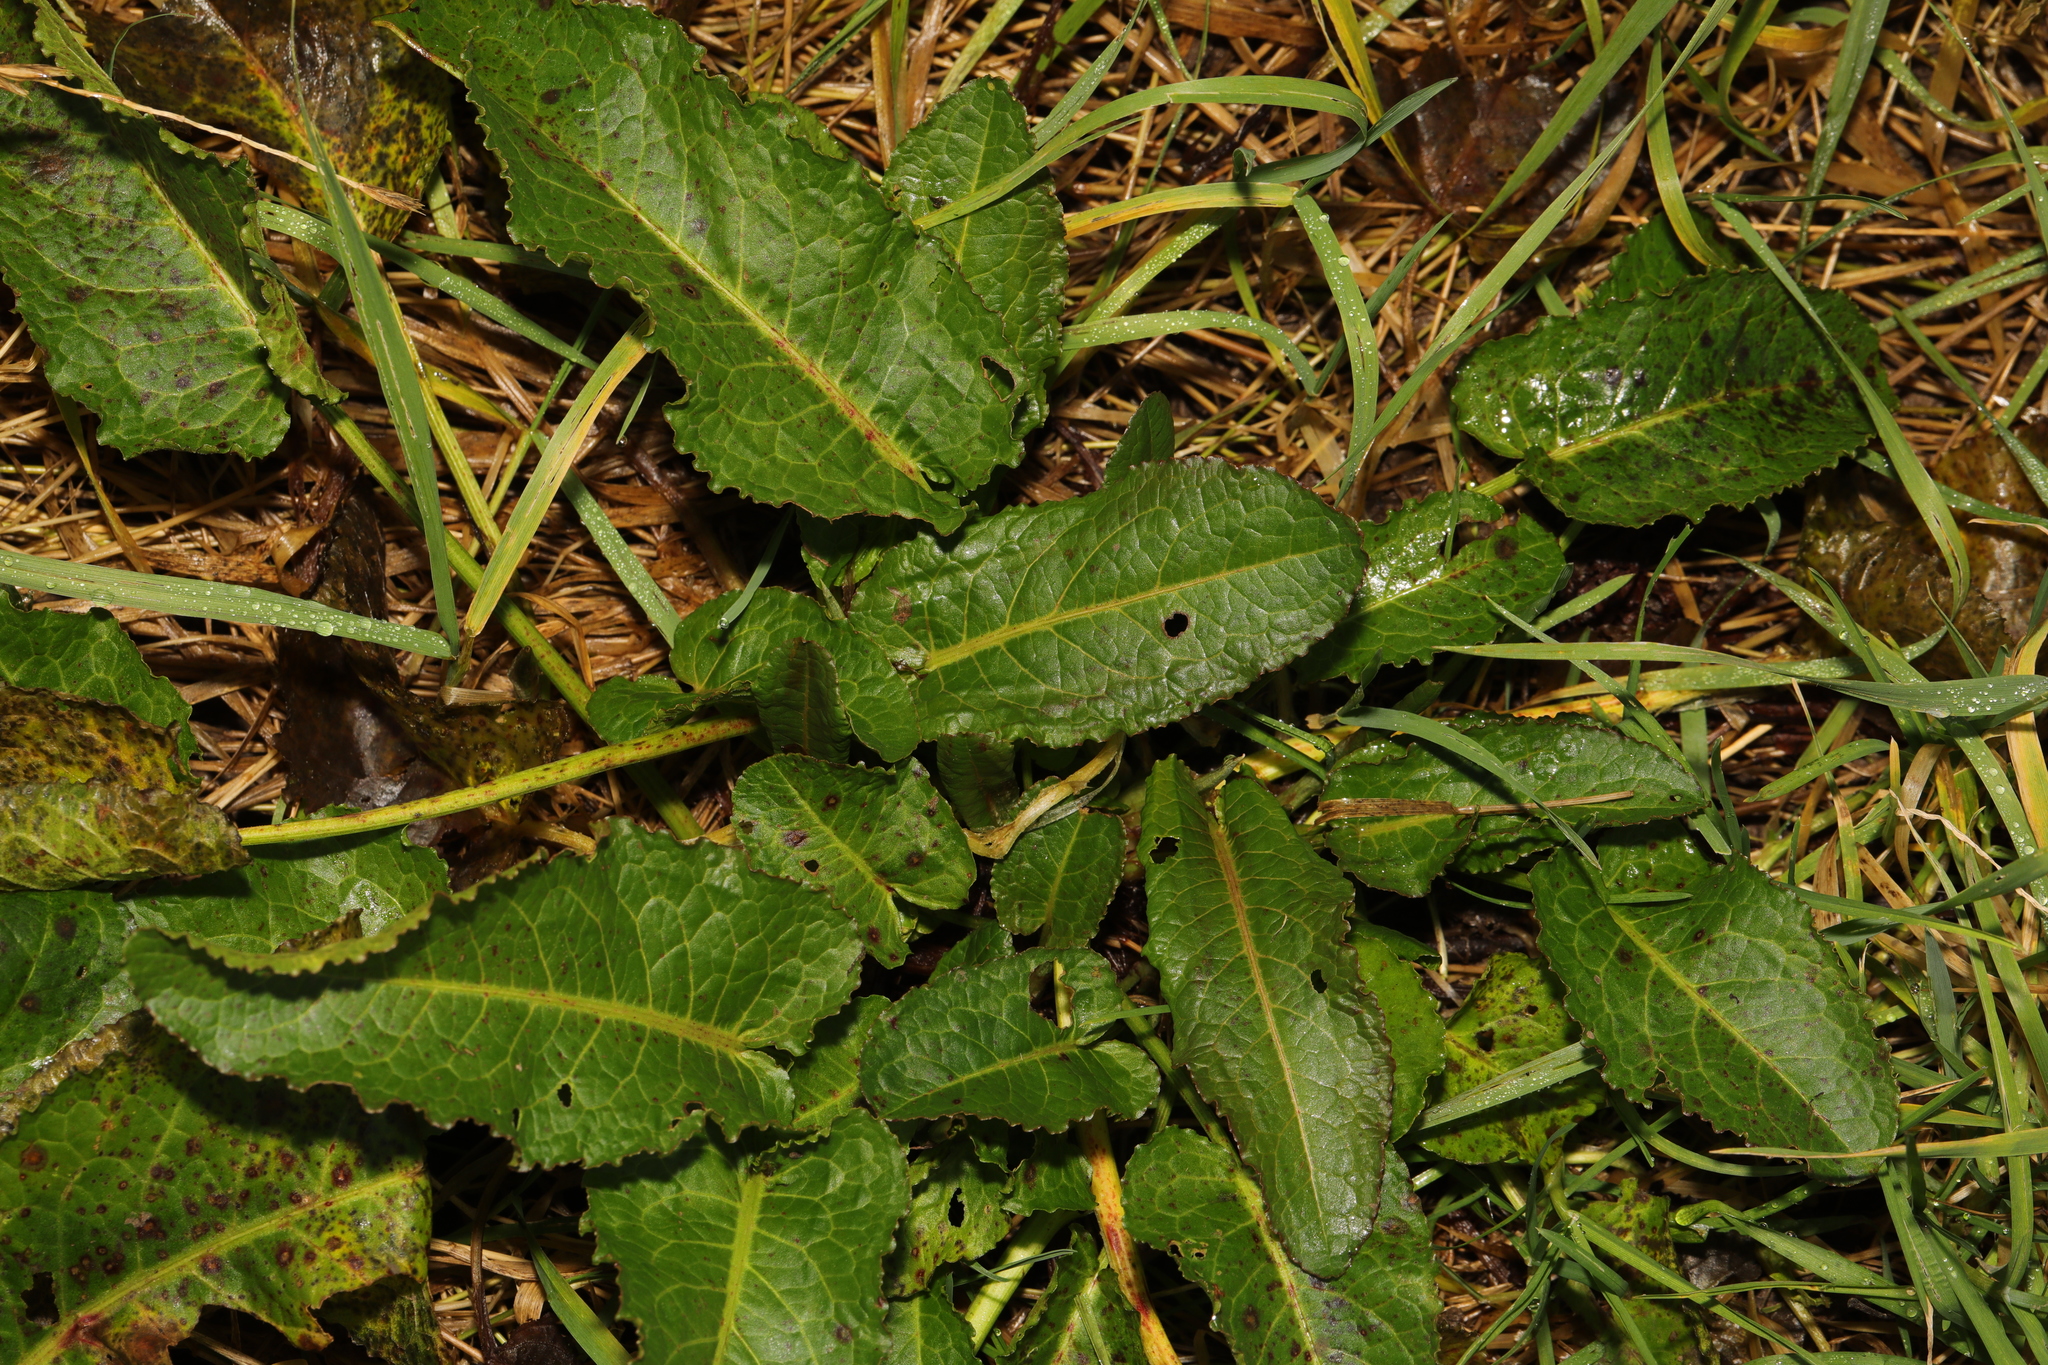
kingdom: Plantae
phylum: Tracheophyta
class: Magnoliopsida
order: Caryophyllales
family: Polygonaceae
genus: Rumex
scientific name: Rumex obtusifolius
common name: Bitter dock
